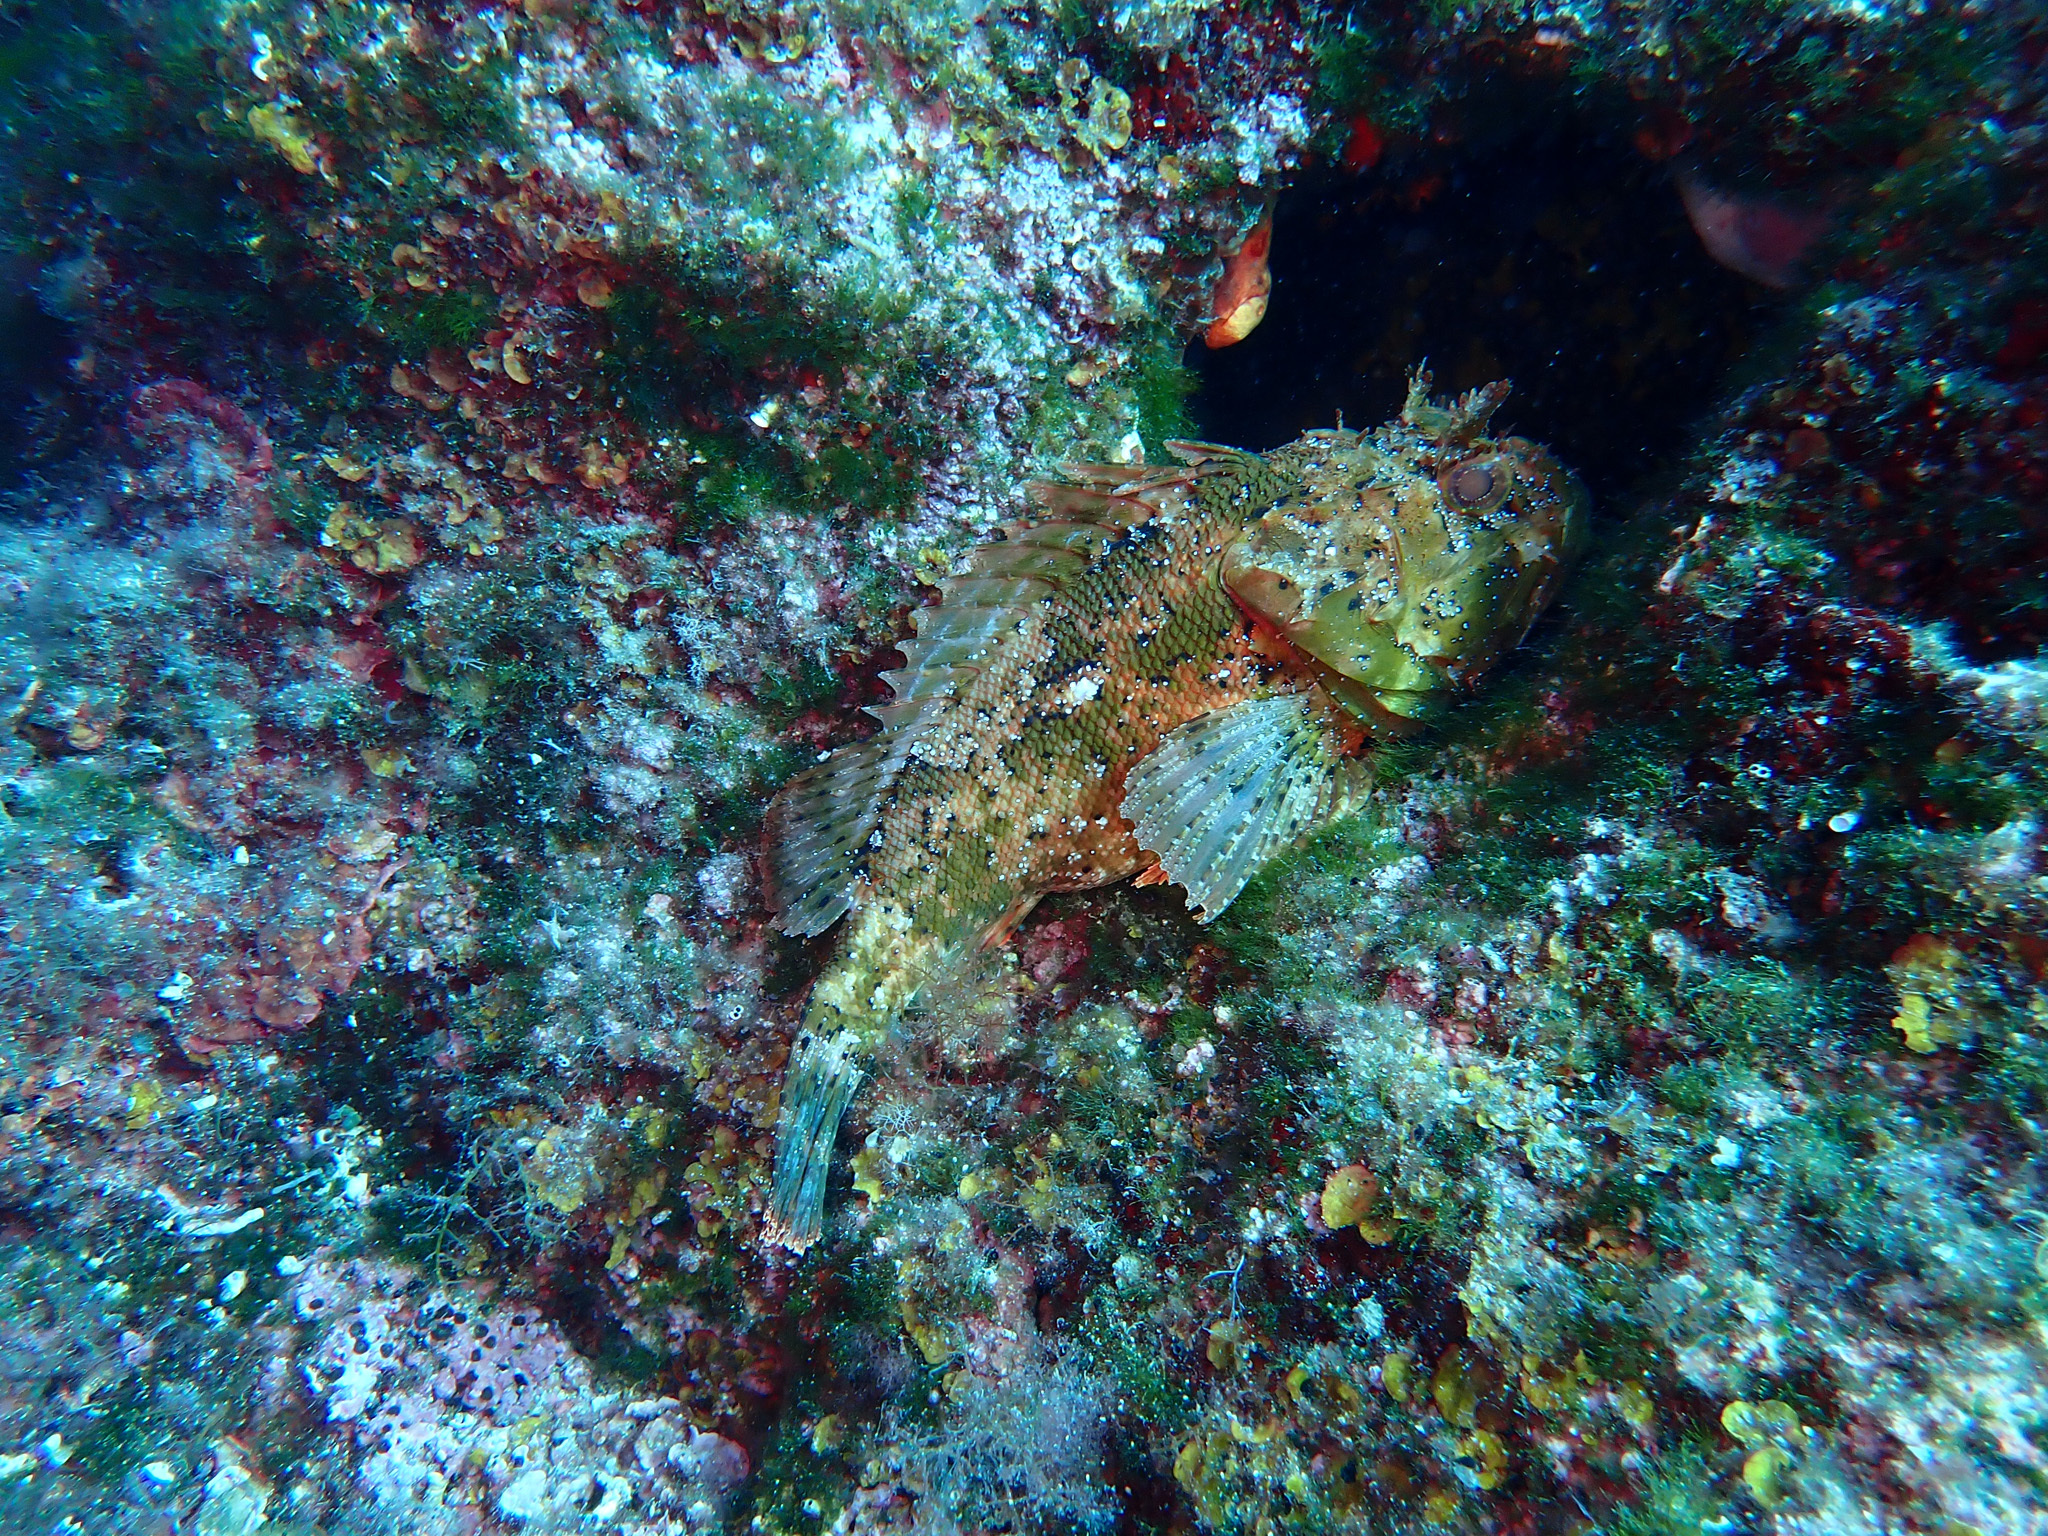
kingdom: Animalia
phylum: Chordata
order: Scorpaeniformes
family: Scorpaenidae
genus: Scorpaena
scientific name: Scorpaena porcus
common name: Black scorpionfish
